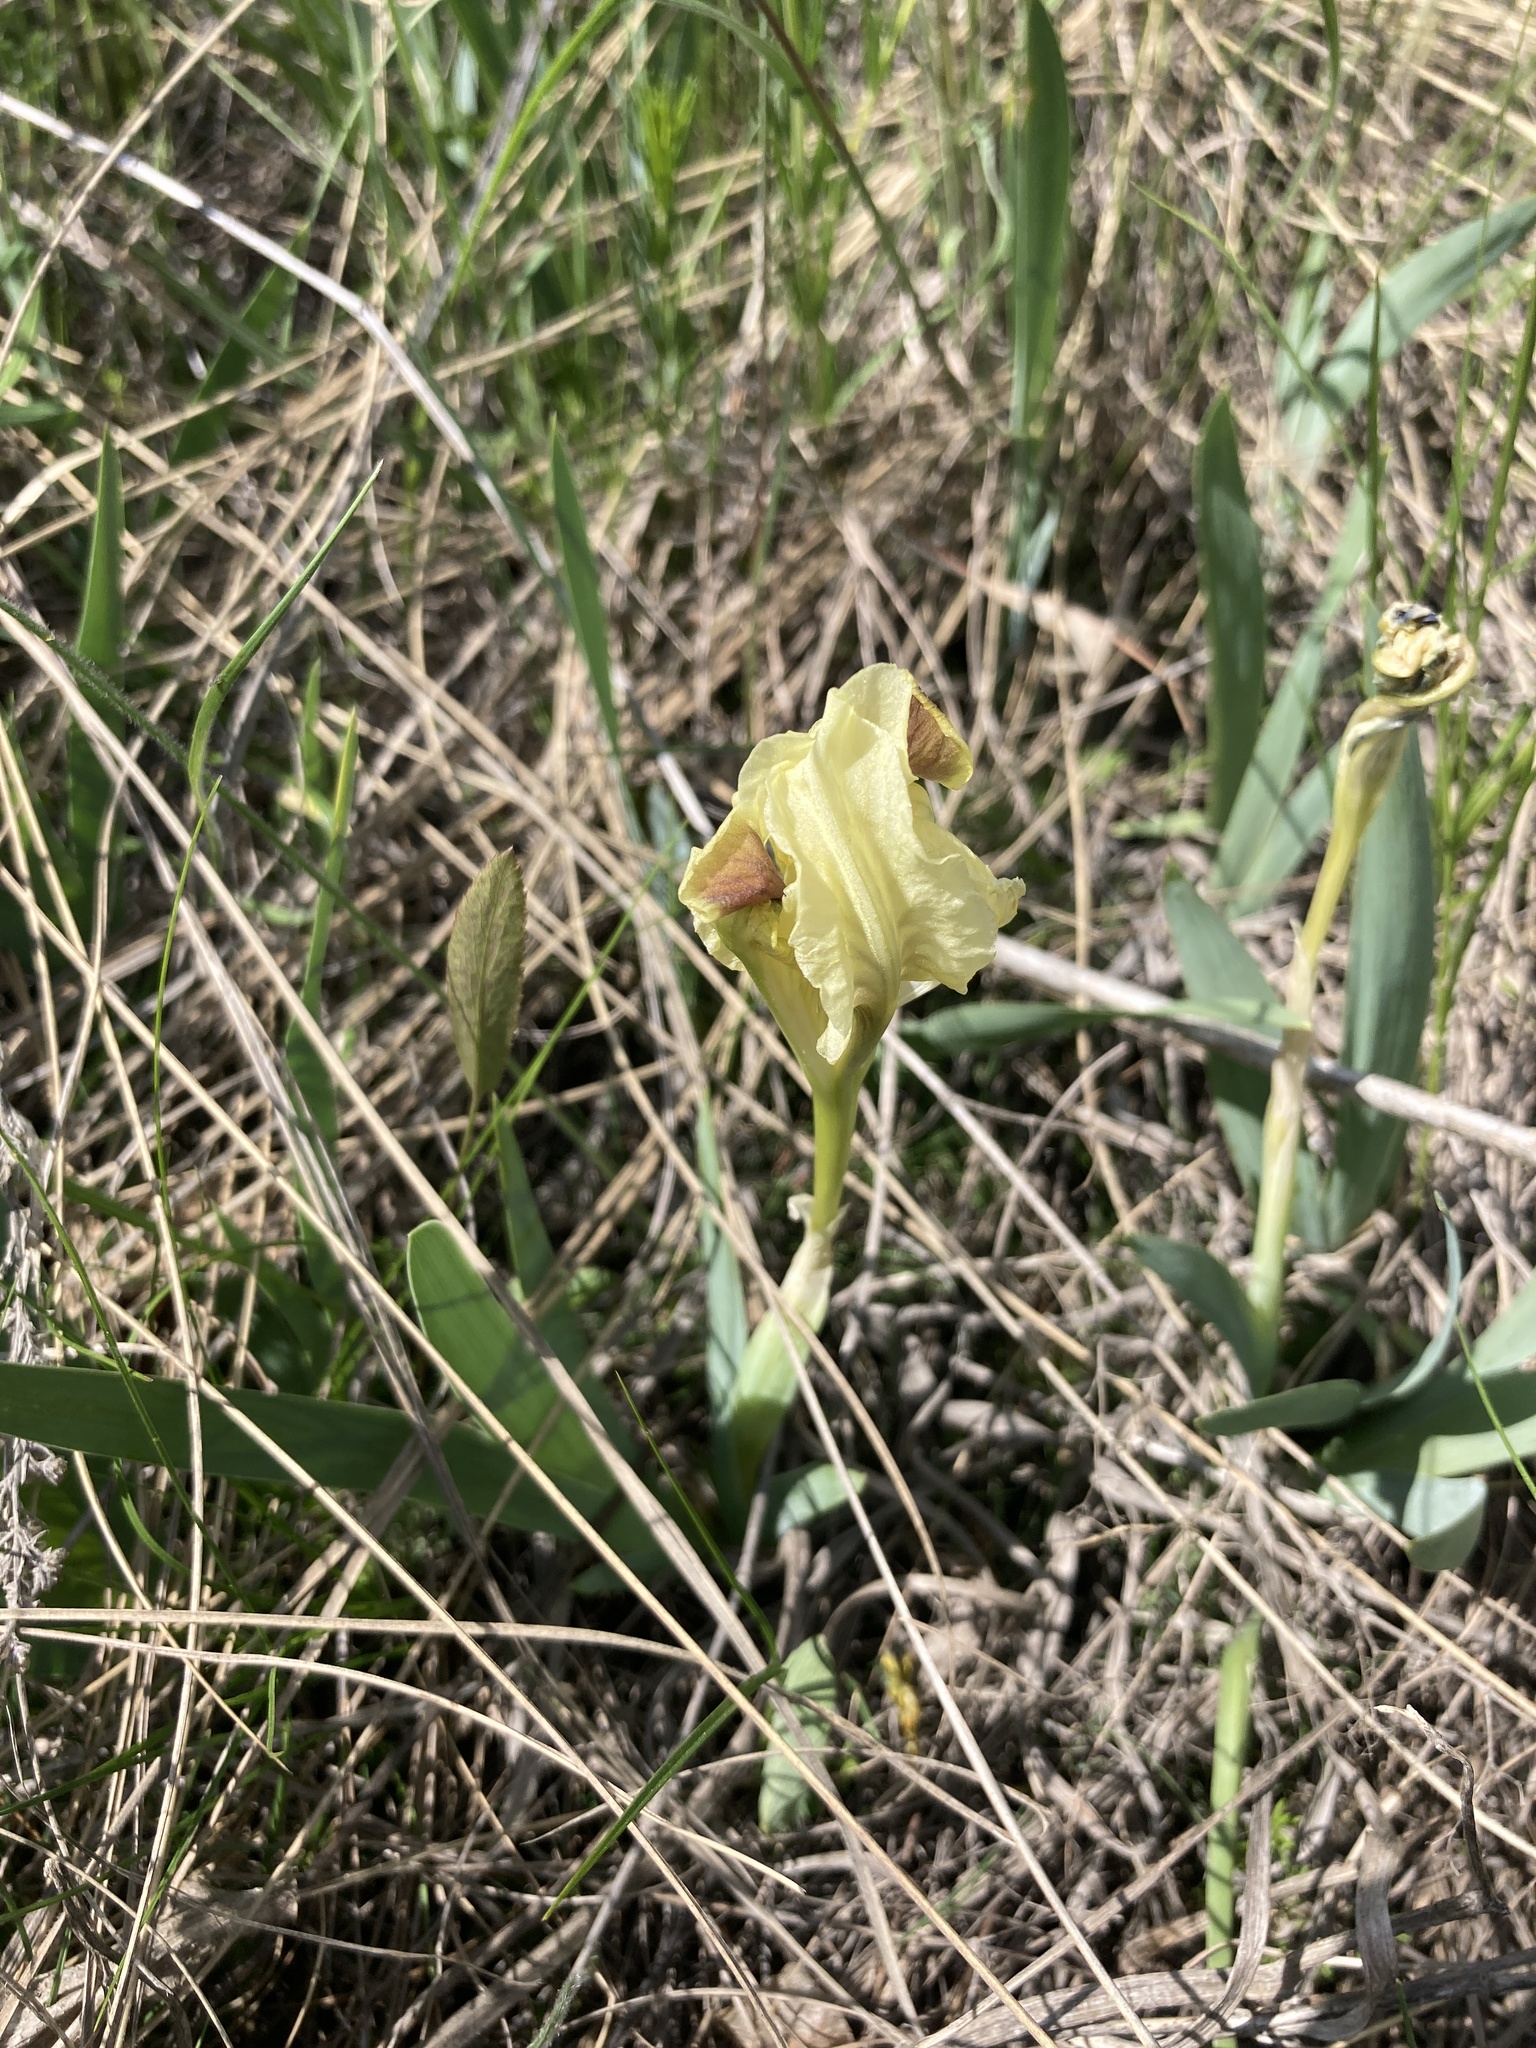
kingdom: Plantae
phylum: Tracheophyta
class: Liliopsida
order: Asparagales
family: Iridaceae
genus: Iris
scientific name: Iris pumila
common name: Dwarf iris
